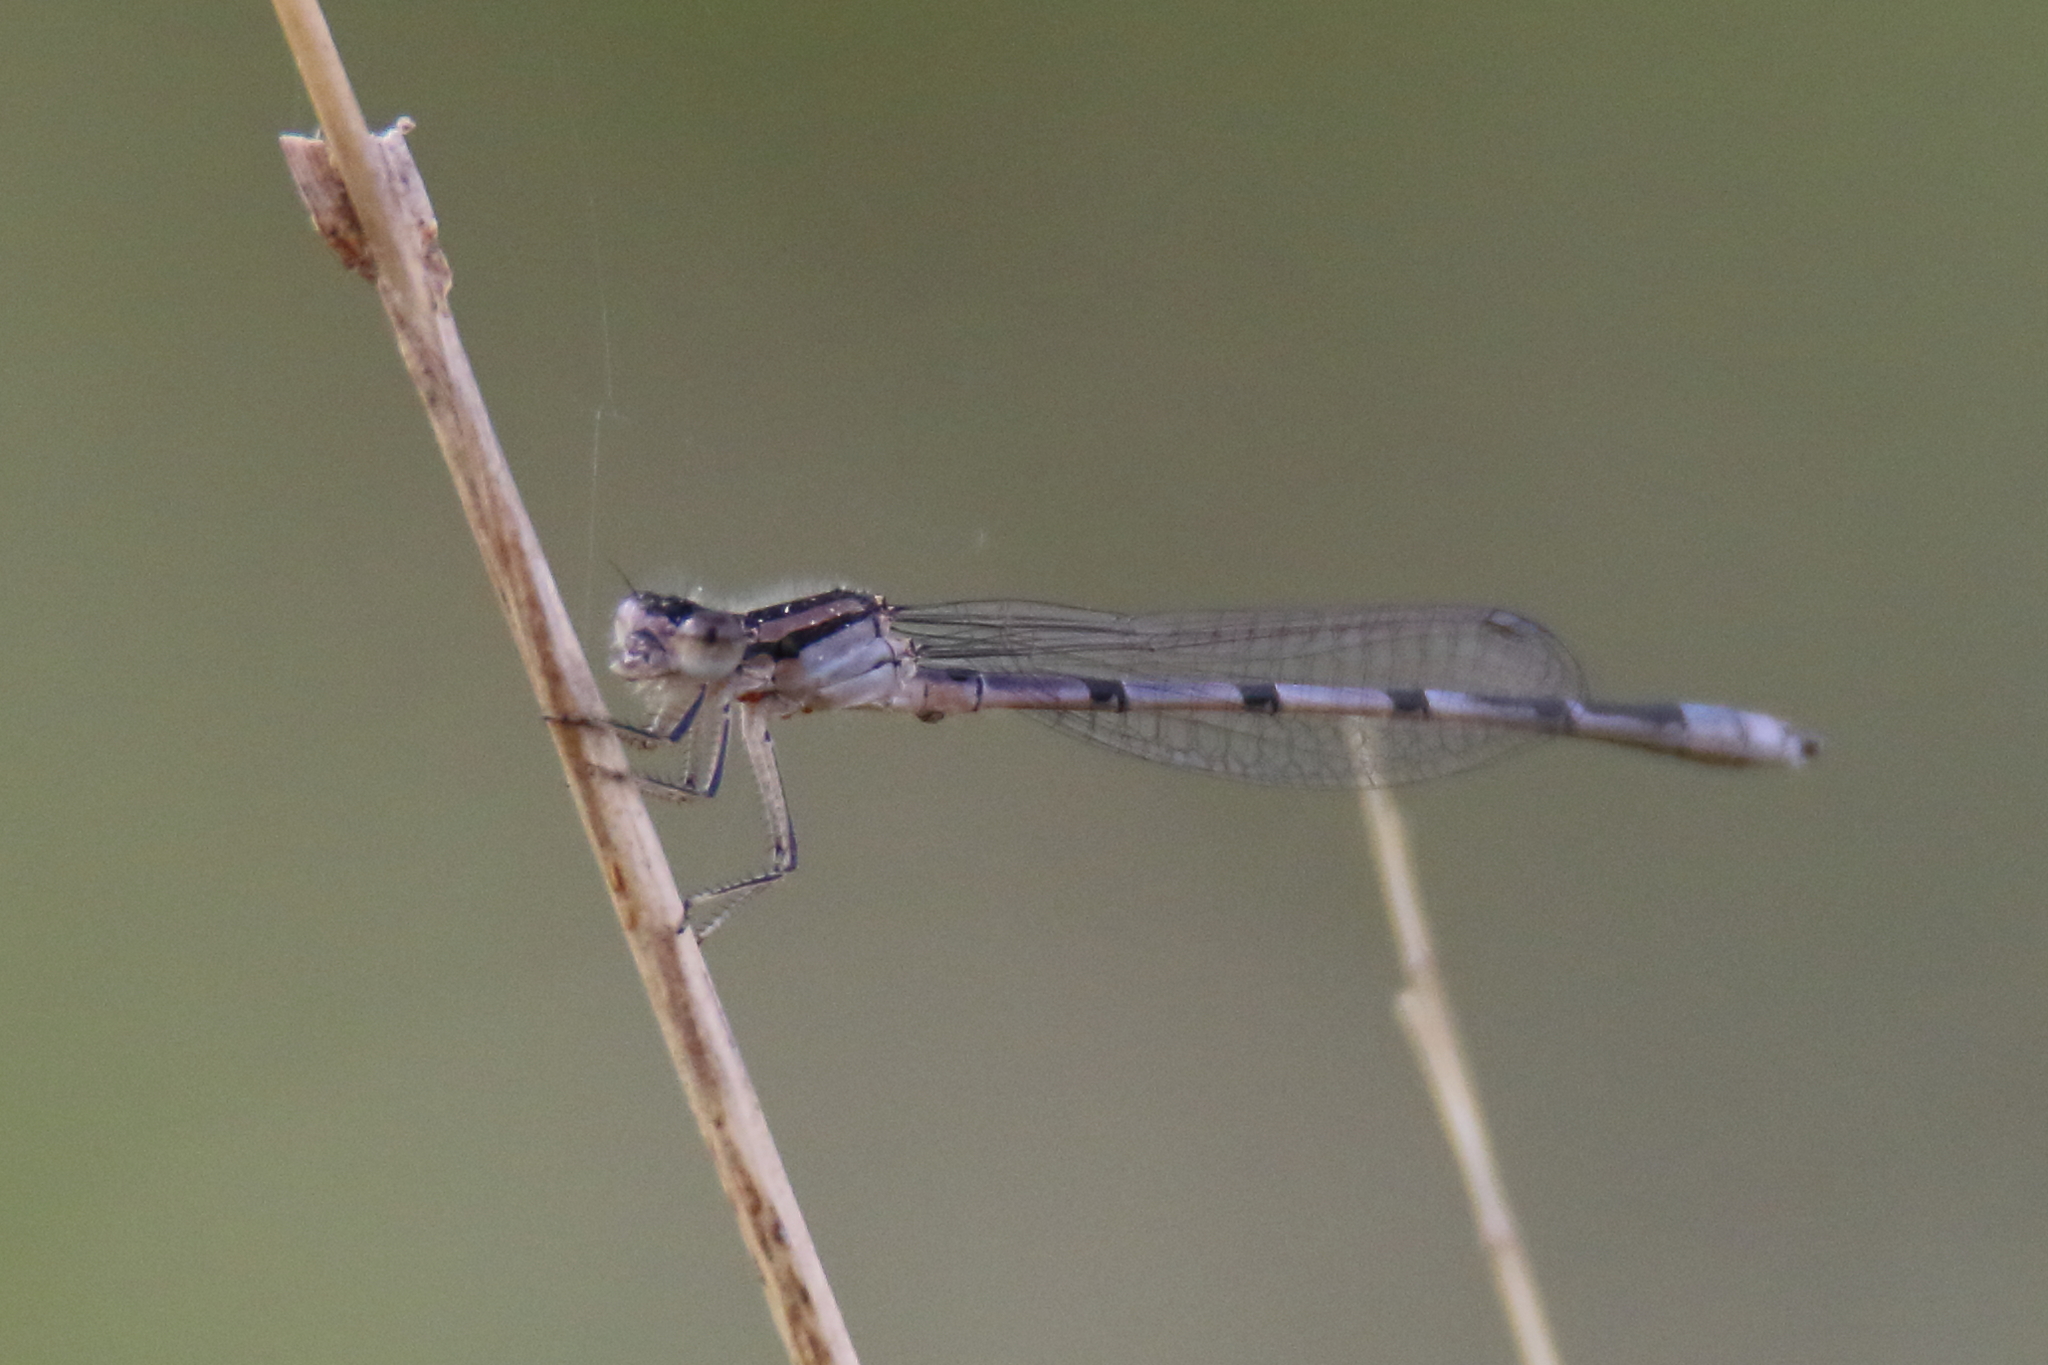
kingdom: Animalia
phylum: Arthropoda
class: Insecta
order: Odonata
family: Coenagrionidae
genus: Enallagma
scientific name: Enallagma civile
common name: Damselfly
